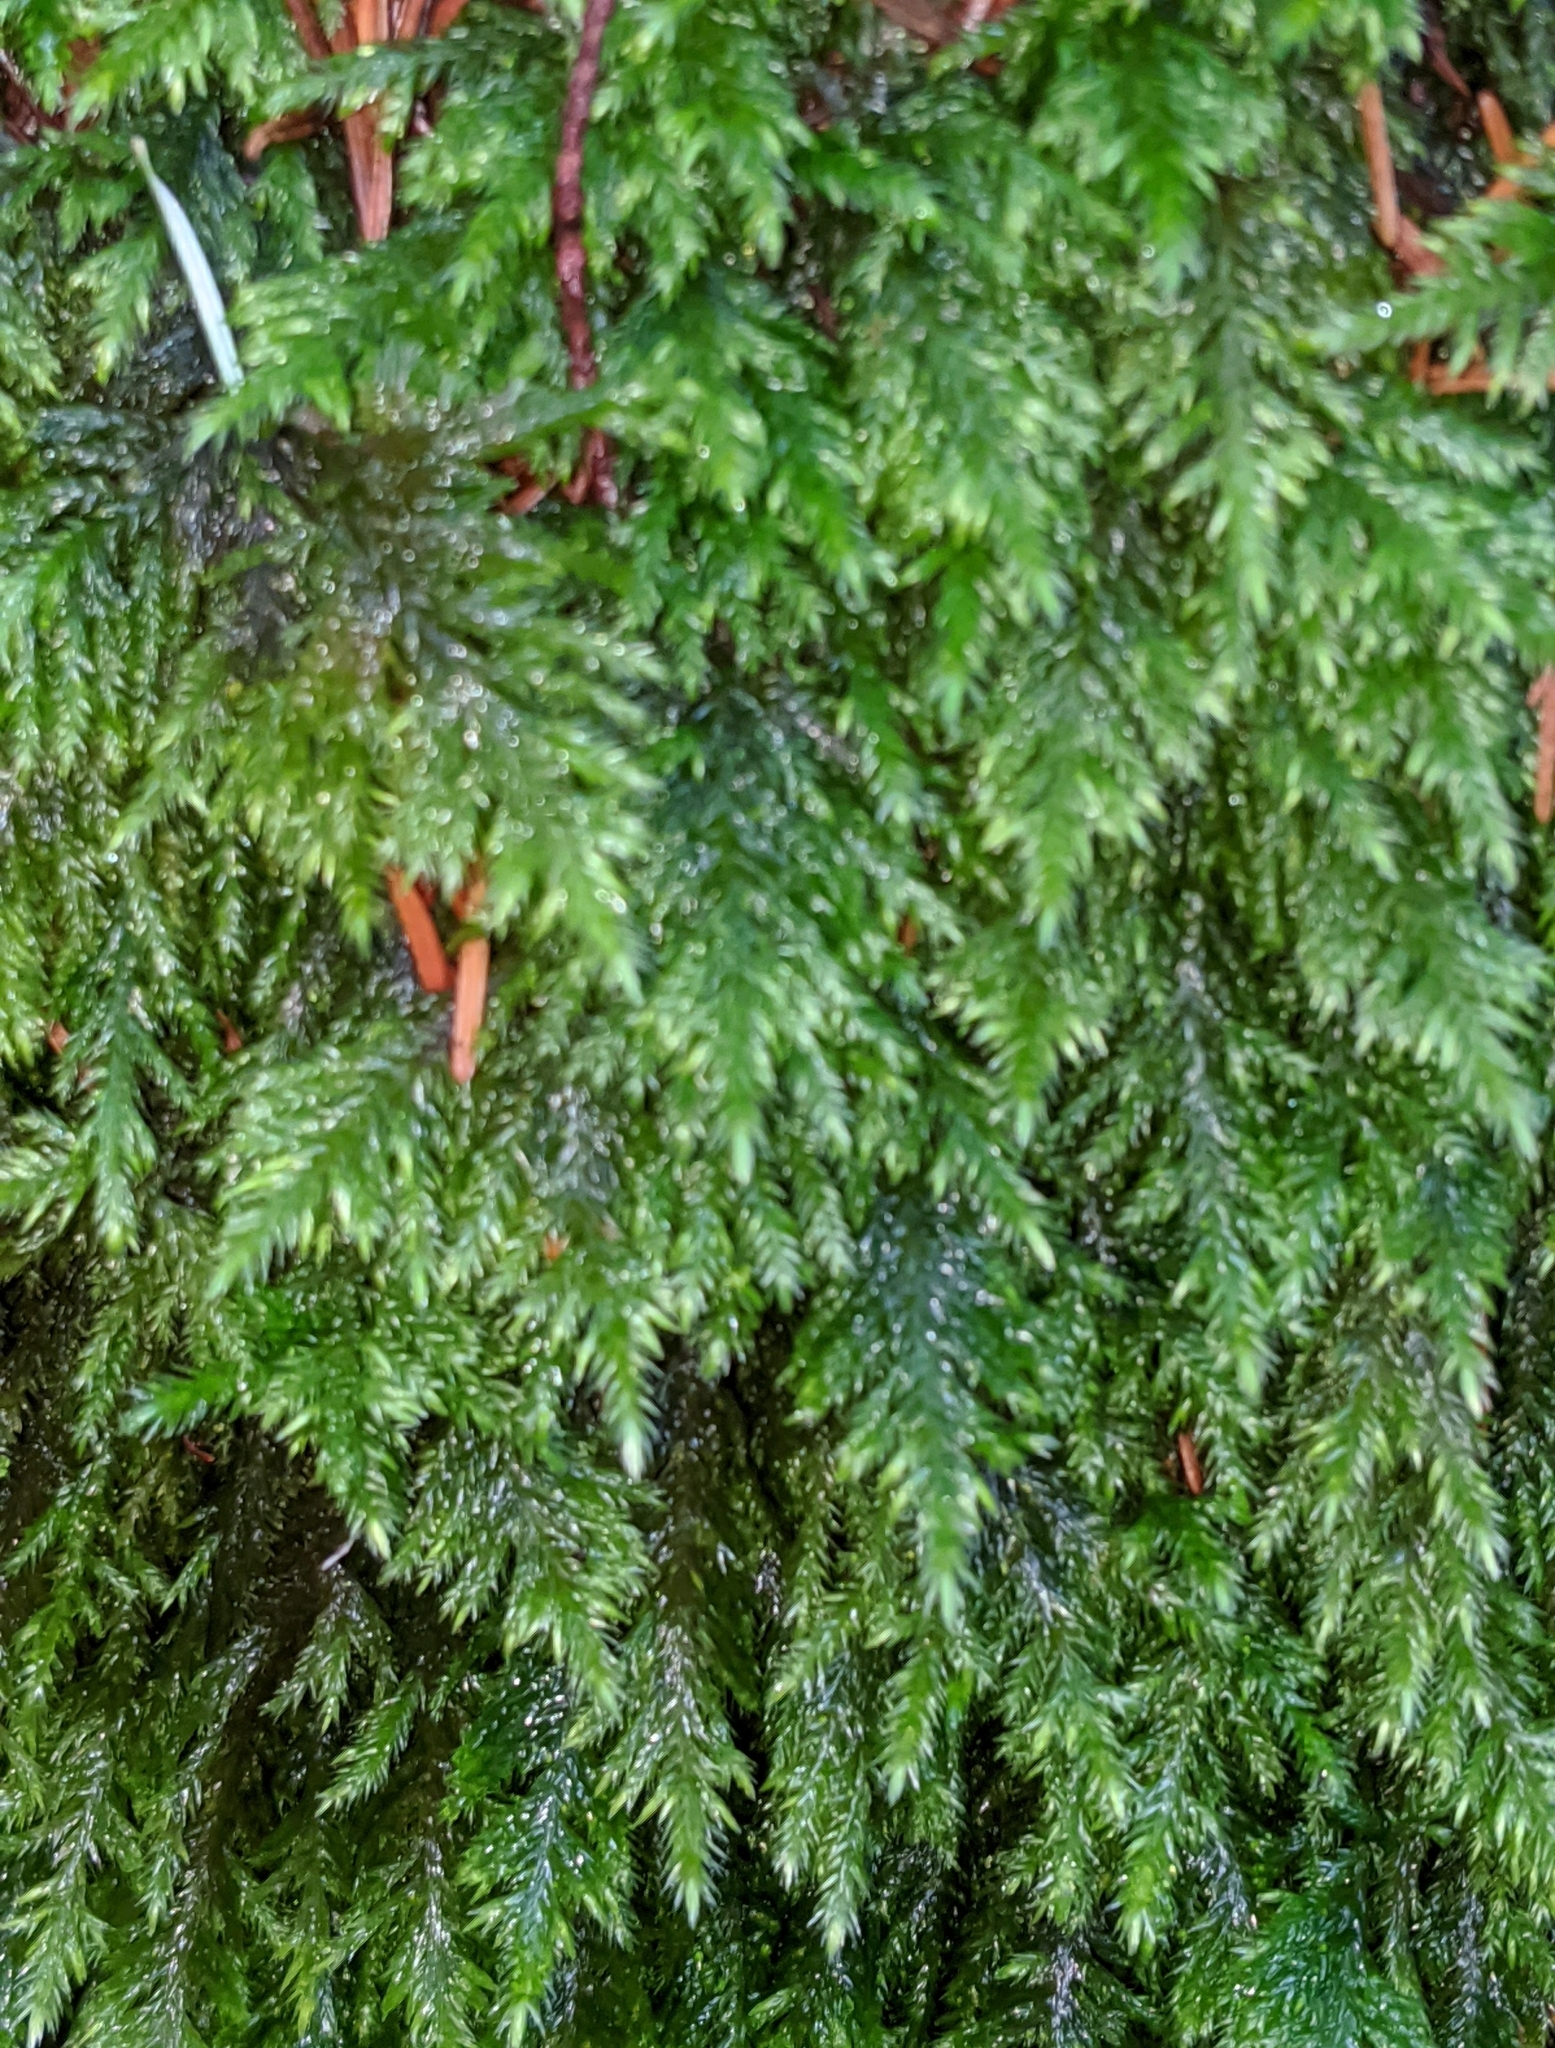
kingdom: Plantae
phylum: Bryophyta
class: Bryopsida
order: Hypnales
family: Cryphaeaceae
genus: Dendroalsia
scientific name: Dendroalsia abietina
